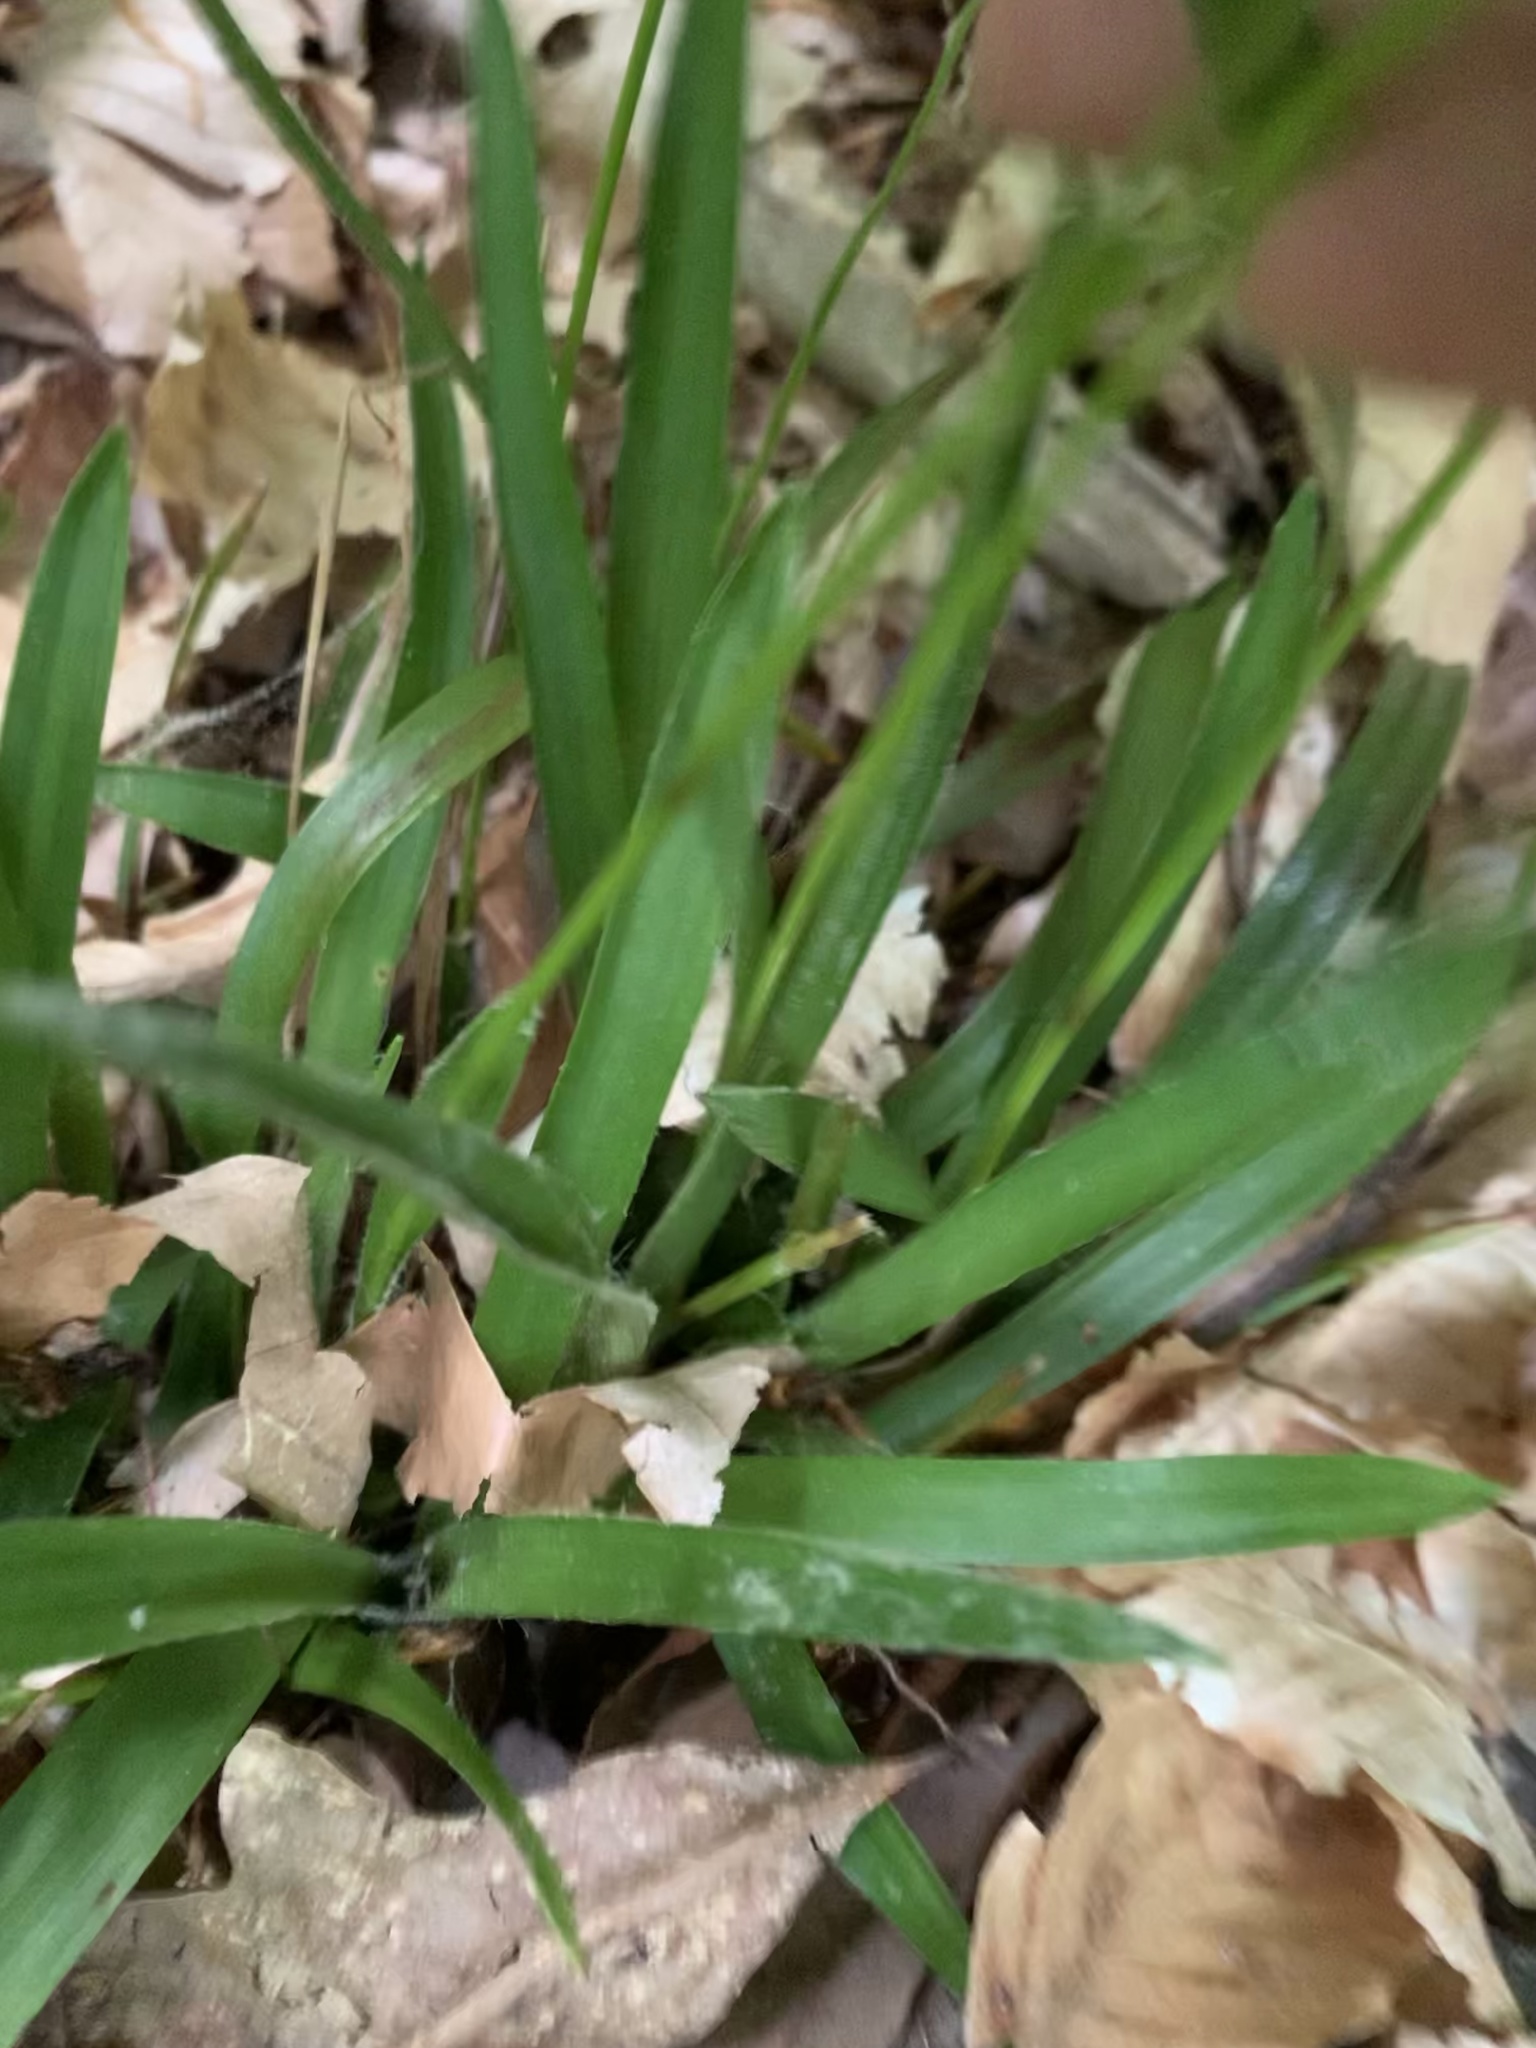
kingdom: Plantae
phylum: Tracheophyta
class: Liliopsida
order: Poales
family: Juncaceae
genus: Luzula
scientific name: Luzula acuminata
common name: Hairy woodrush
